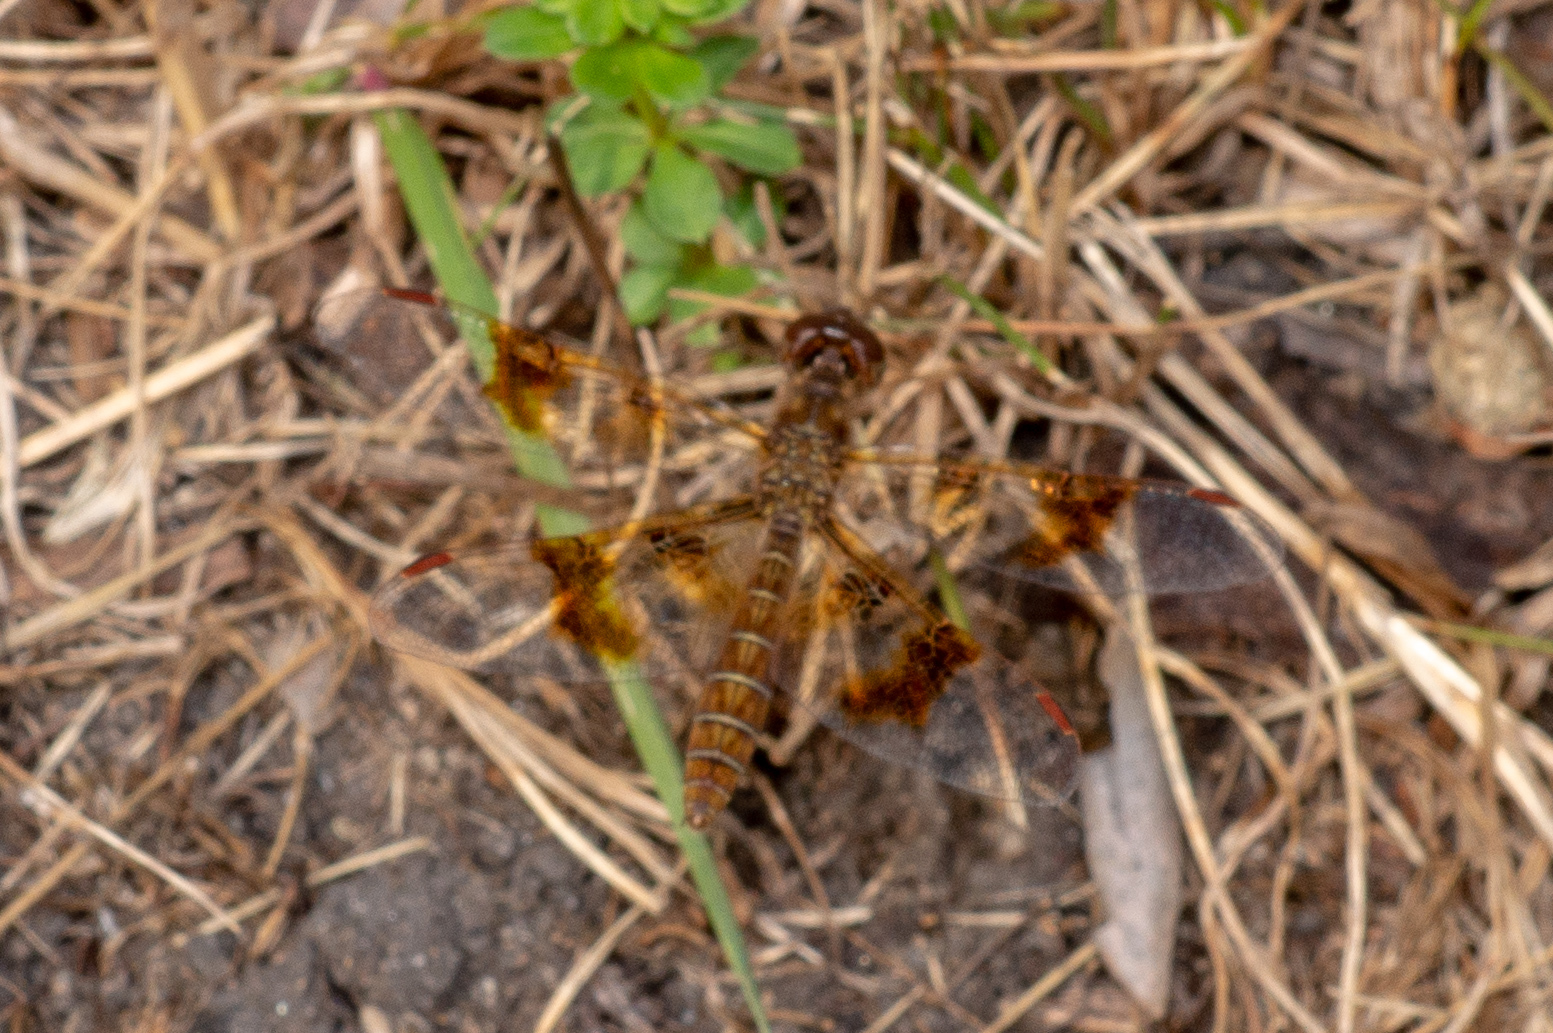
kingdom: Animalia
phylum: Arthropoda
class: Insecta
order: Odonata
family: Libellulidae
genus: Perithemis
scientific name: Perithemis tenera
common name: Eastern amberwing
